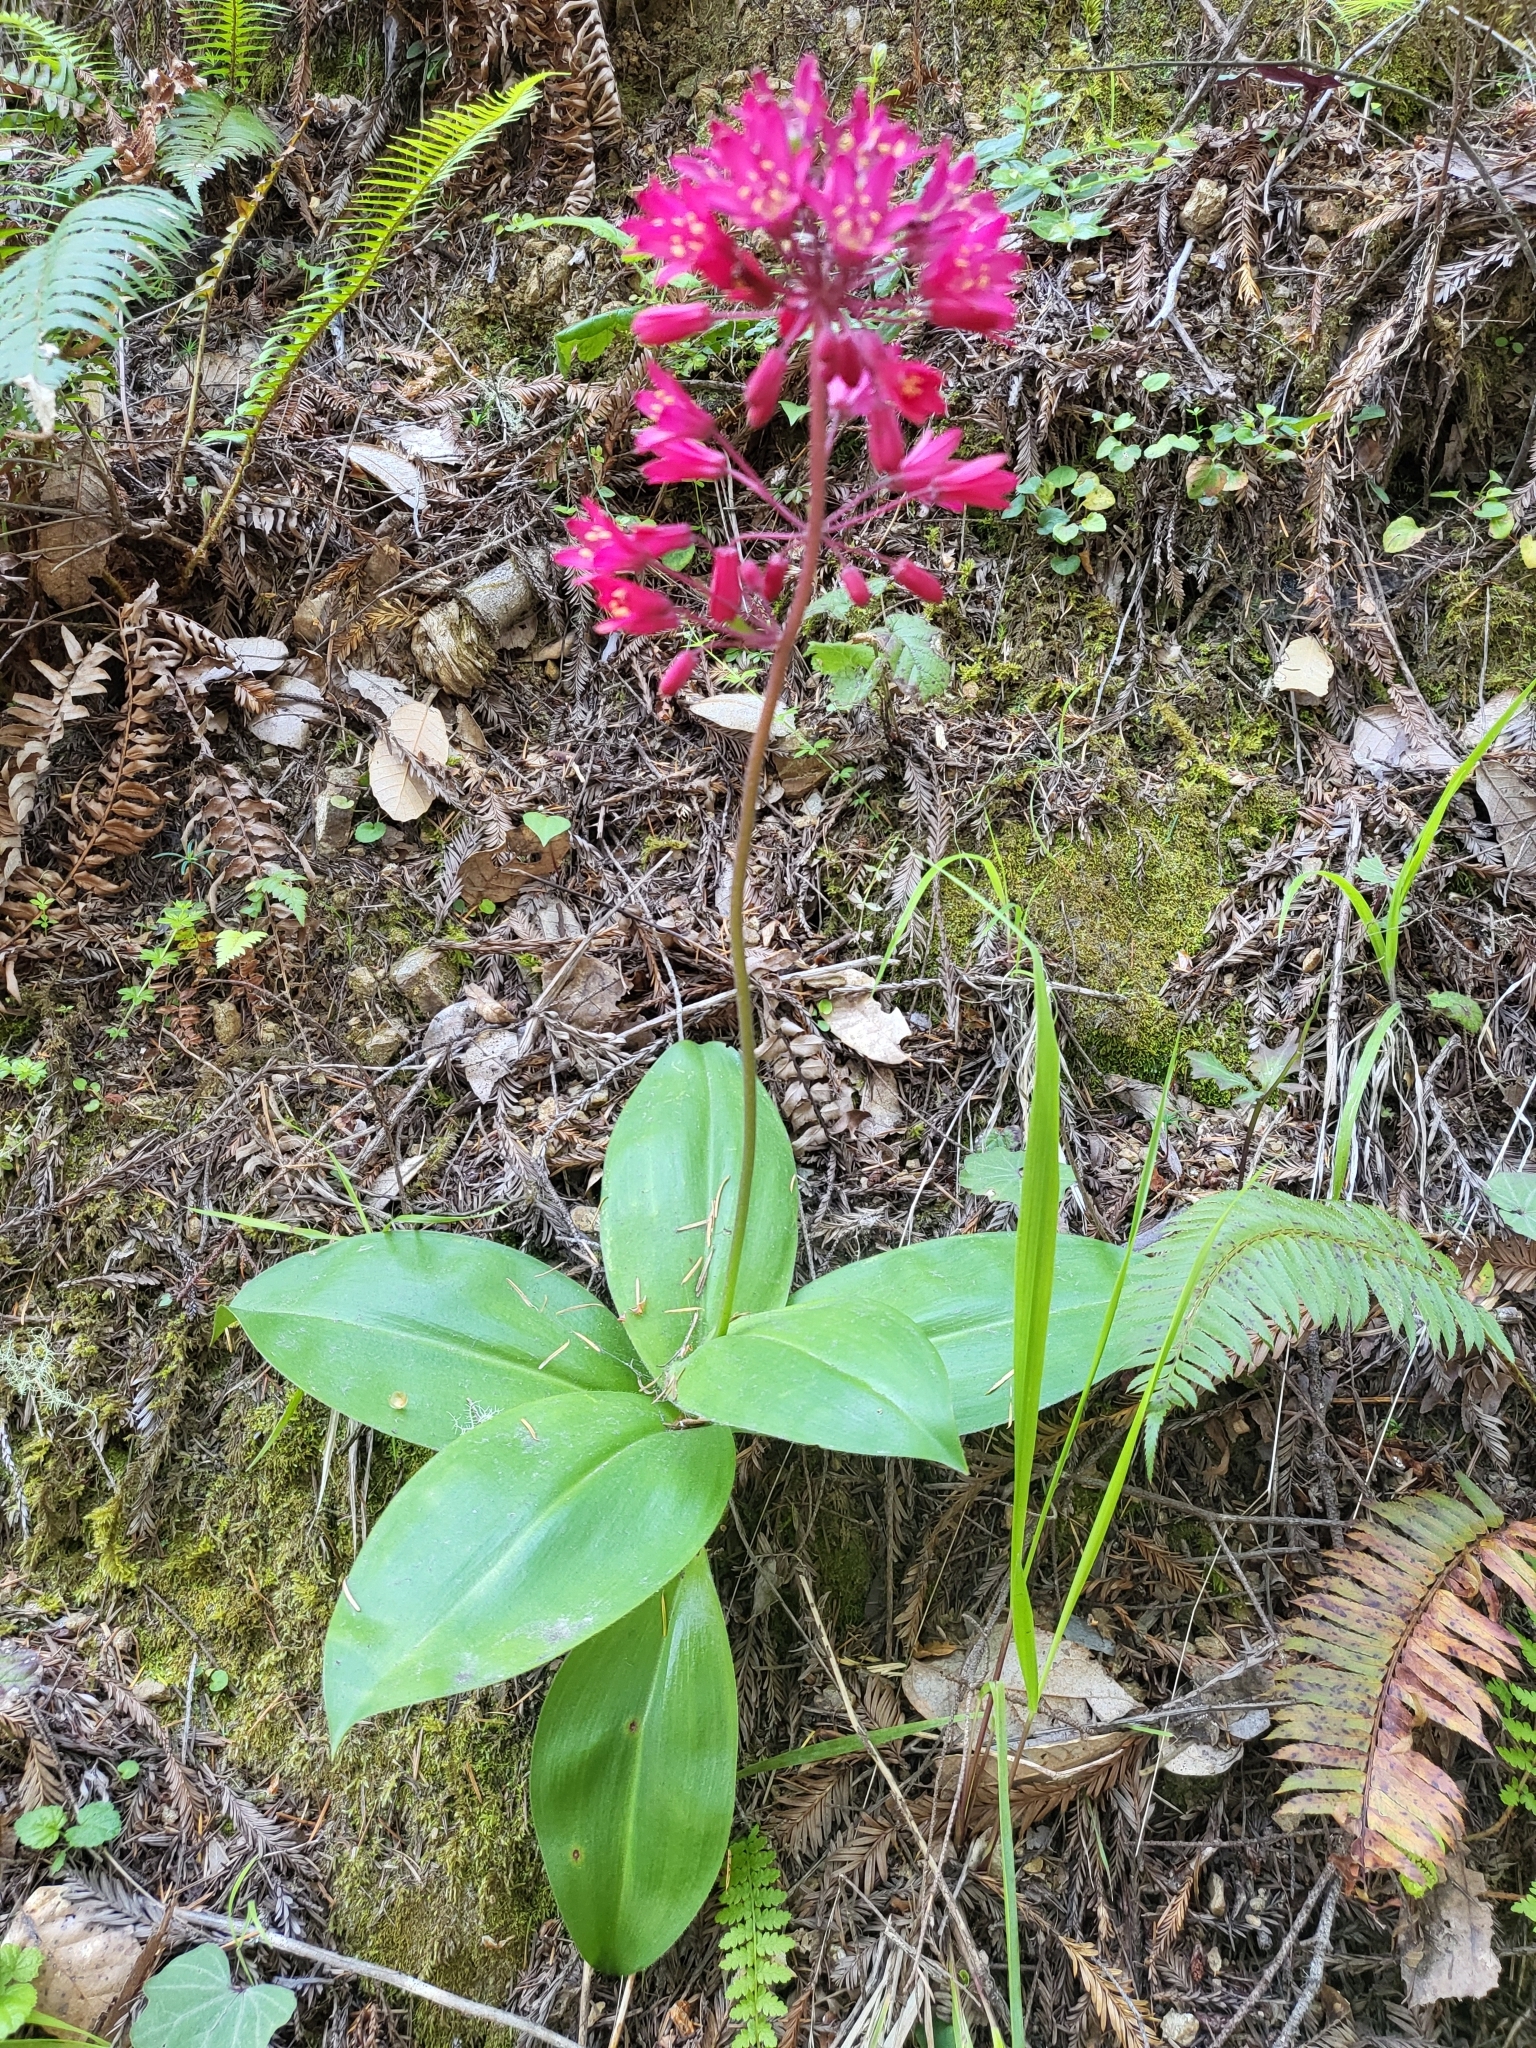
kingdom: Plantae
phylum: Tracheophyta
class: Liliopsida
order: Liliales
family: Liliaceae
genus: Clintonia
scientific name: Clintonia andrewsiana
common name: Red clintonia
